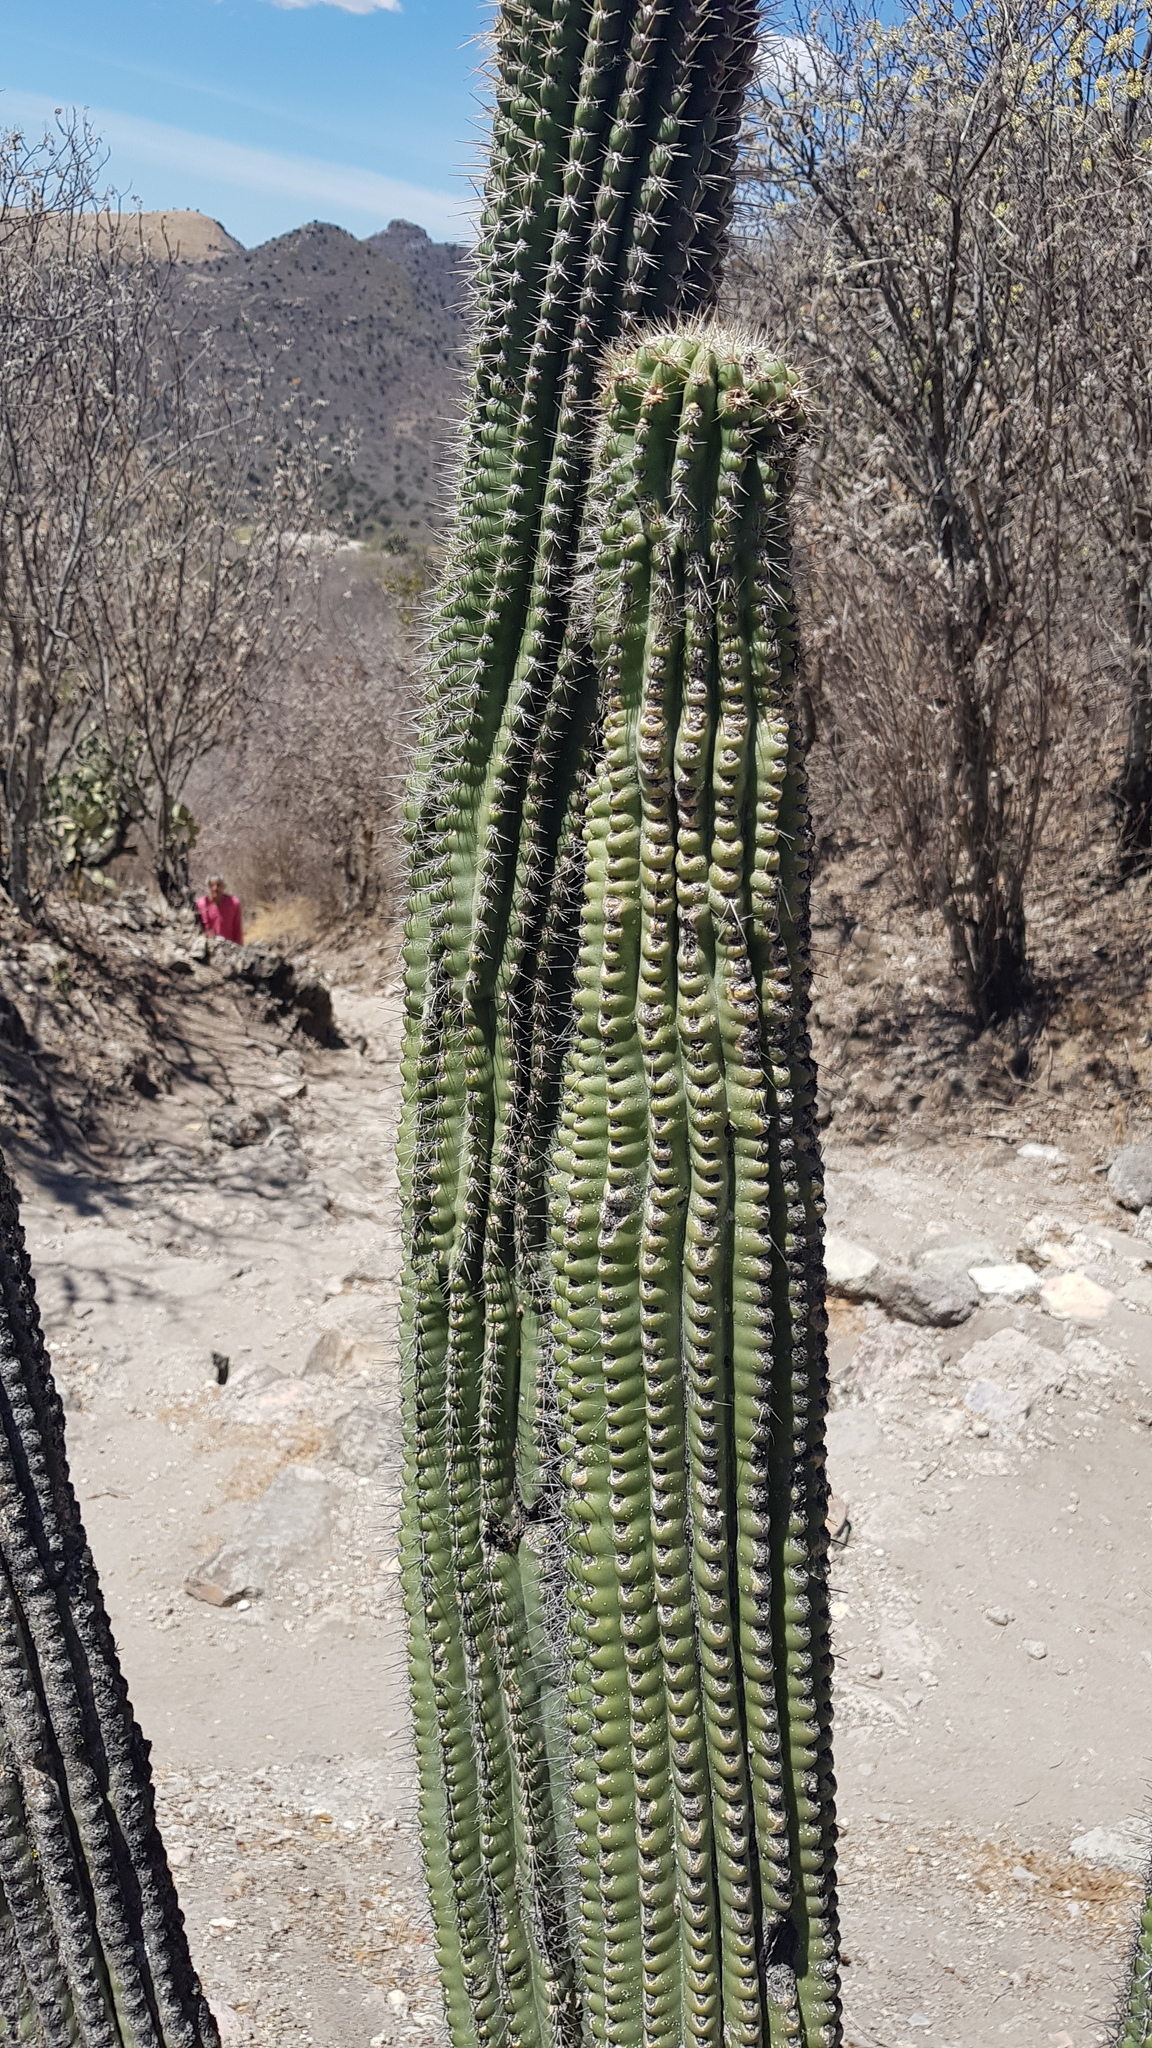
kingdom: Plantae
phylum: Tracheophyta
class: Magnoliopsida
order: Caryophyllales
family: Cactaceae
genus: Stenocereus
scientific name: Stenocereus treleasei
